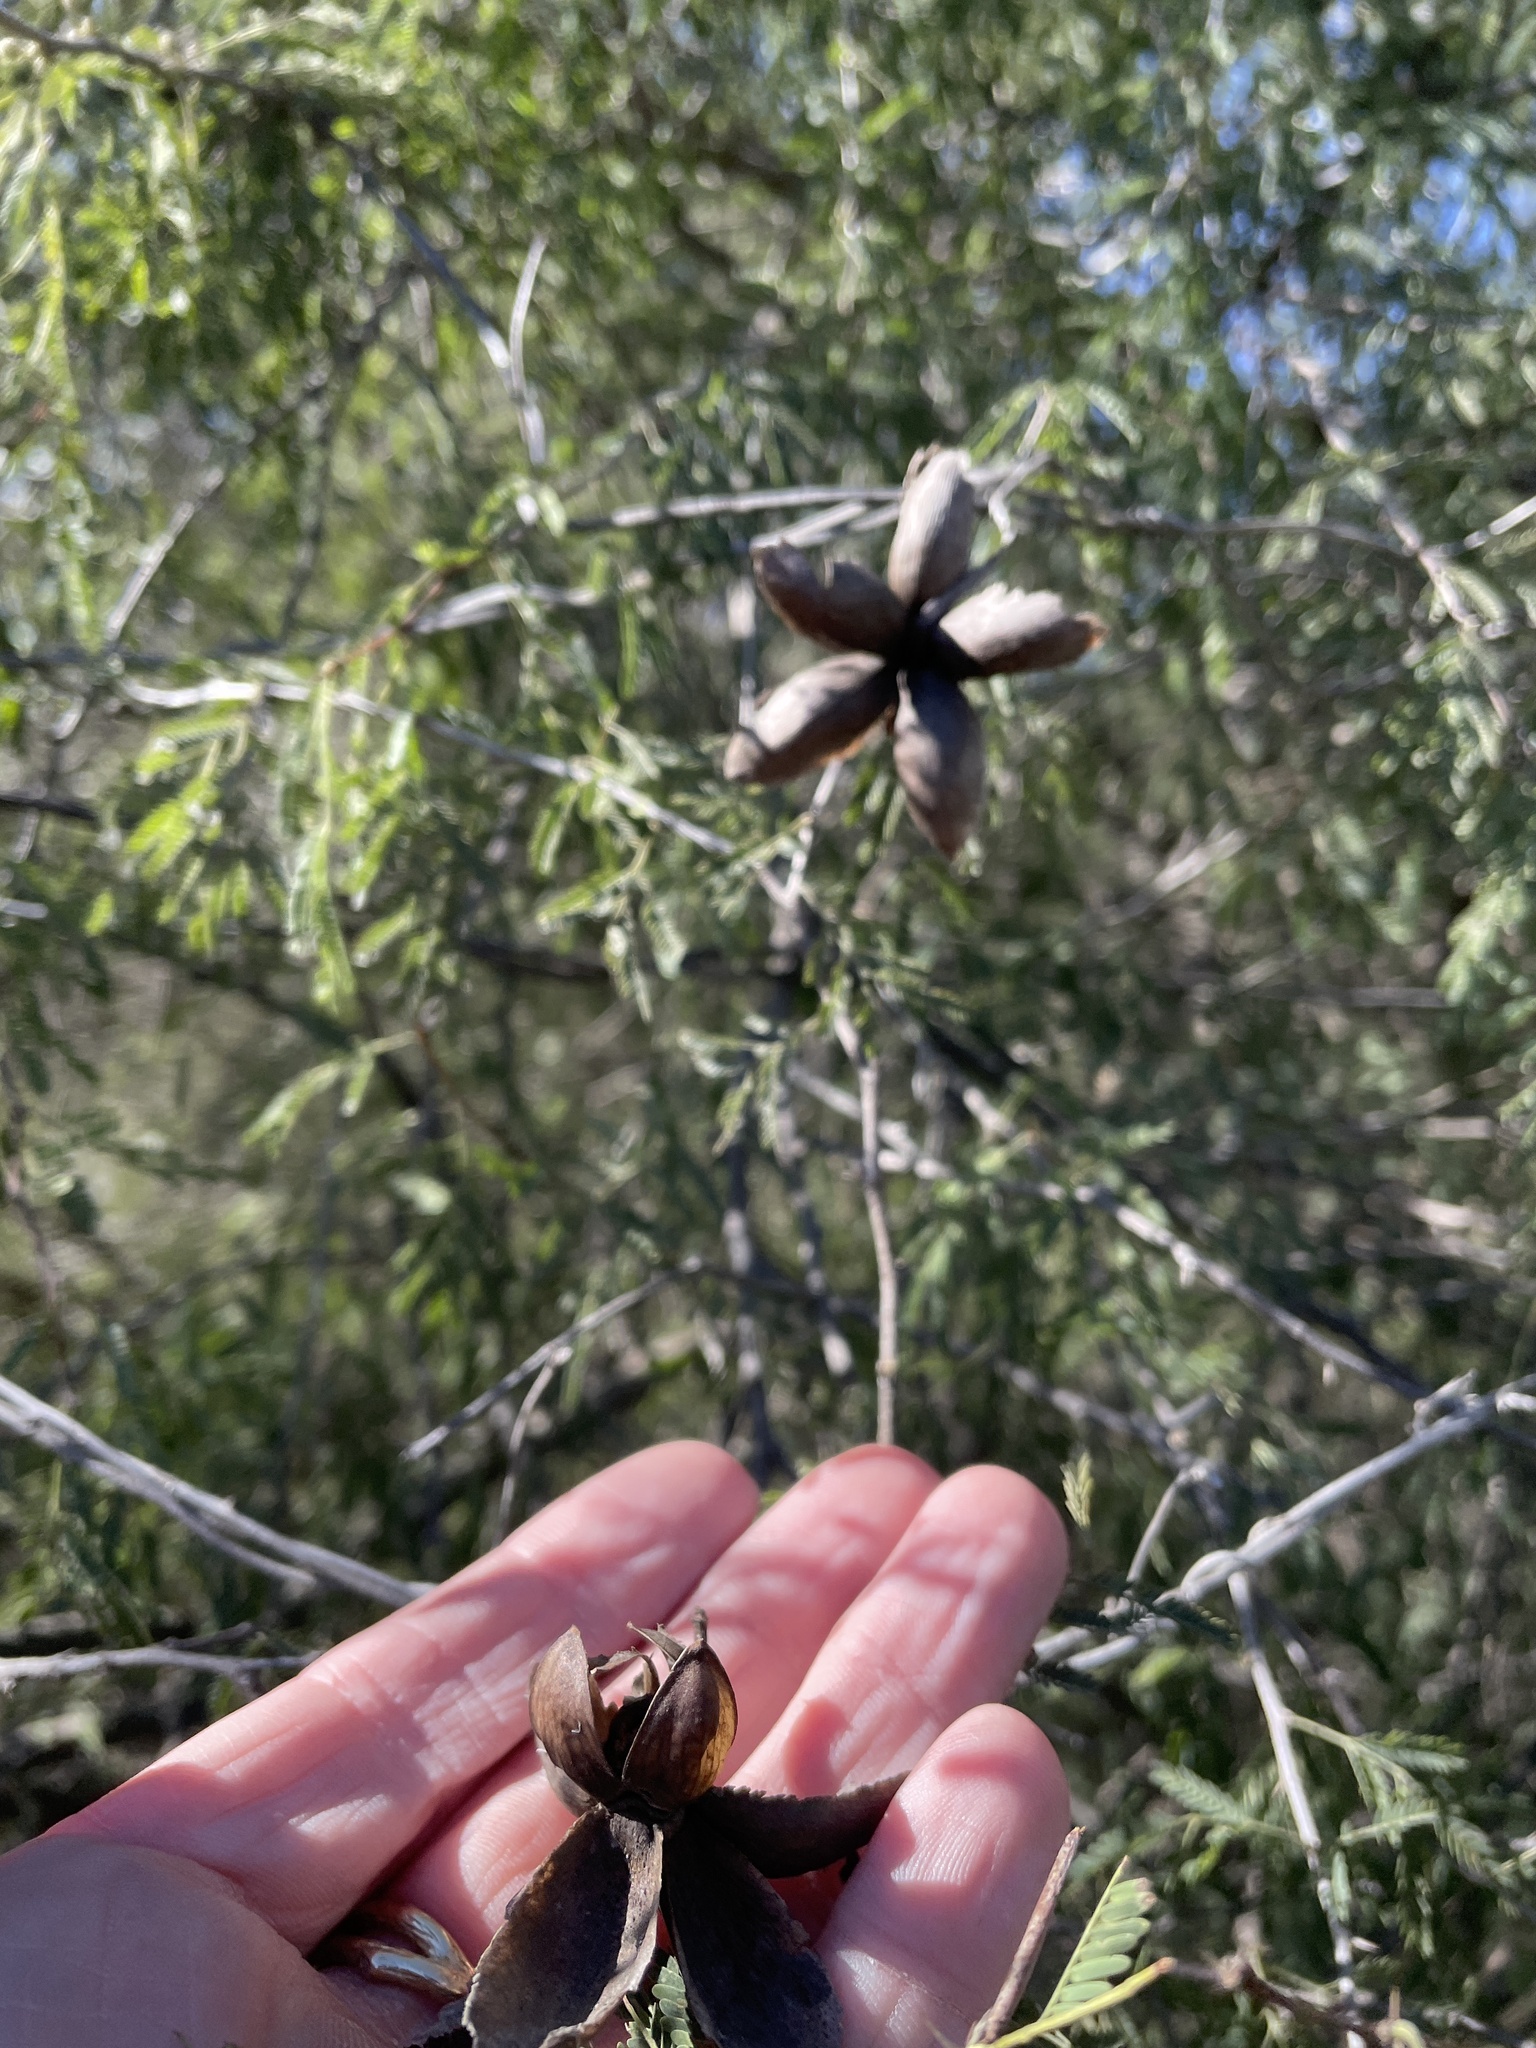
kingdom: Plantae
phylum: Tracheophyta
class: Magnoliopsida
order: Solanales
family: Convolvulaceae
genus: Distimake
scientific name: Distimake dissectus
